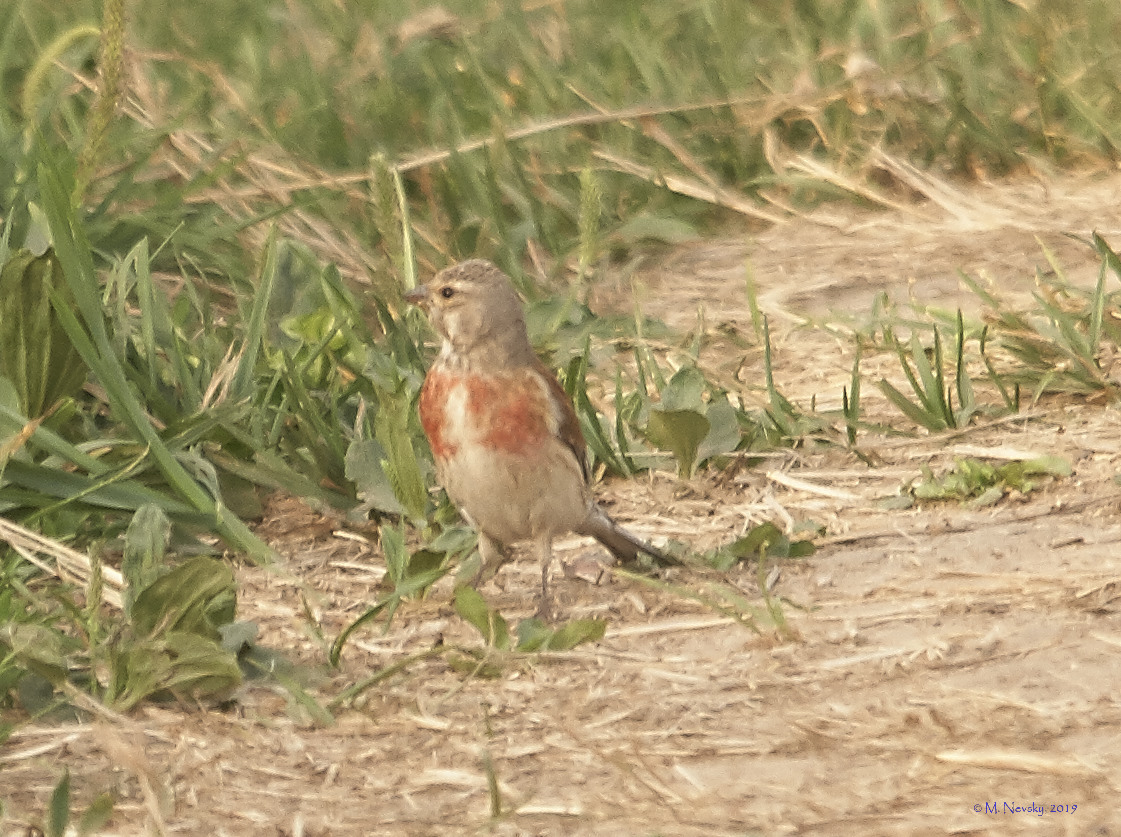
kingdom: Animalia
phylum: Chordata
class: Aves
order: Passeriformes
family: Fringillidae
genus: Linaria
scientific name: Linaria cannabina
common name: Common linnet
